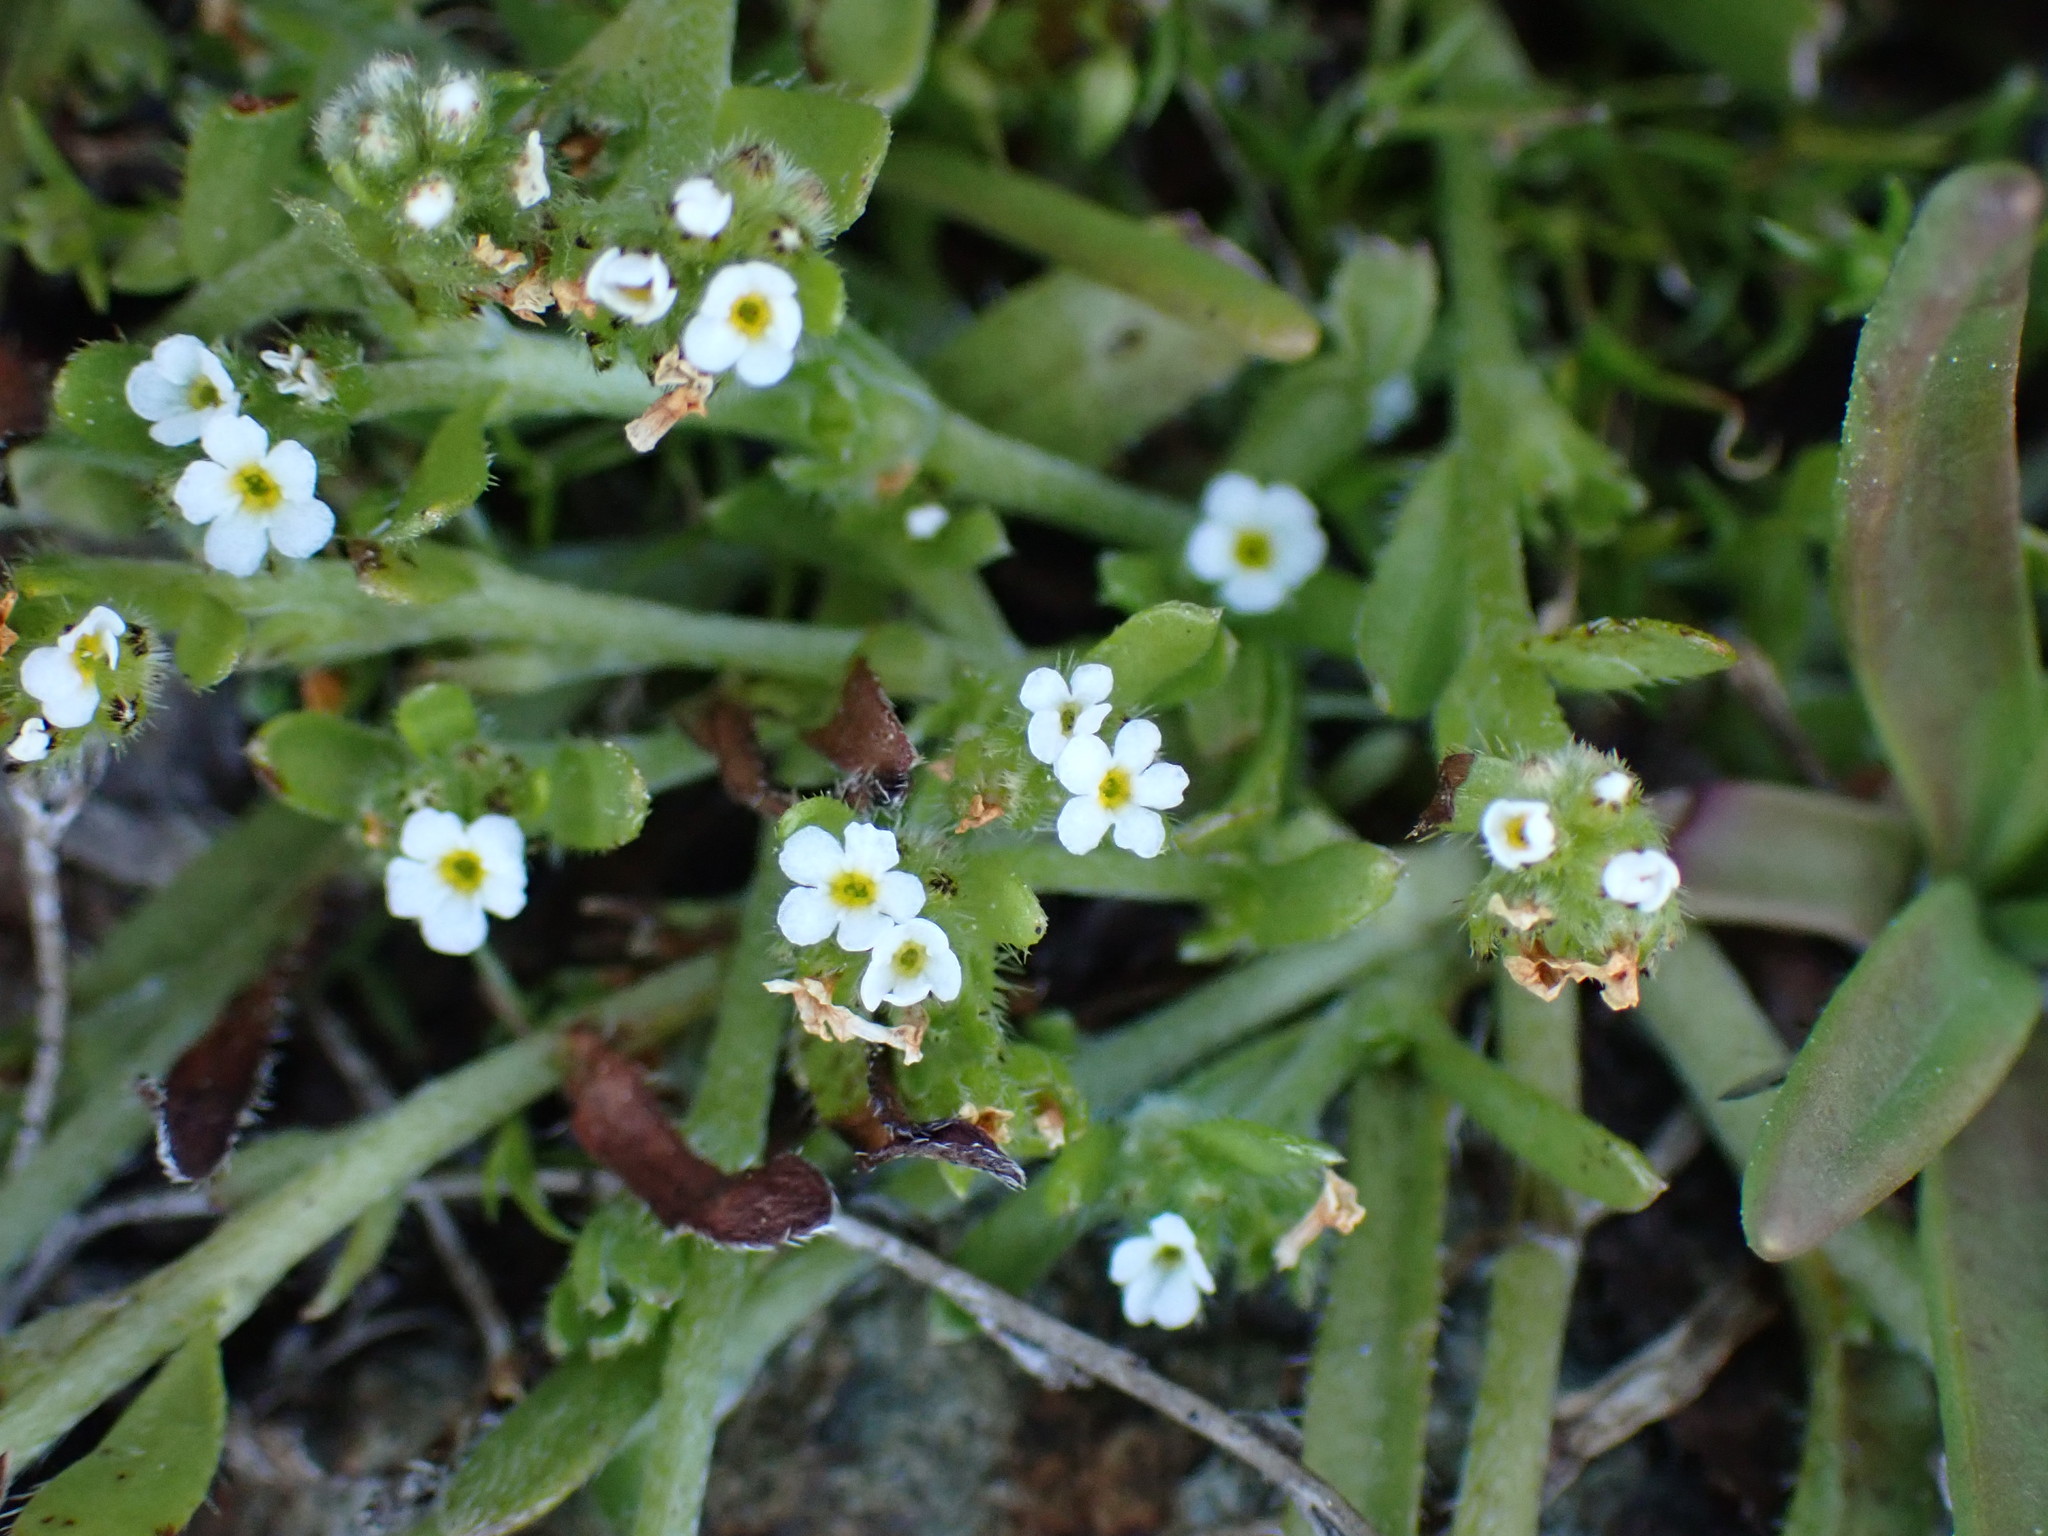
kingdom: Plantae
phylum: Tracheophyta
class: Magnoliopsida
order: Boraginales
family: Boraginaceae
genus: Plagiobothrys
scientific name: Plagiobothrys scouleri
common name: White forget-me-not
